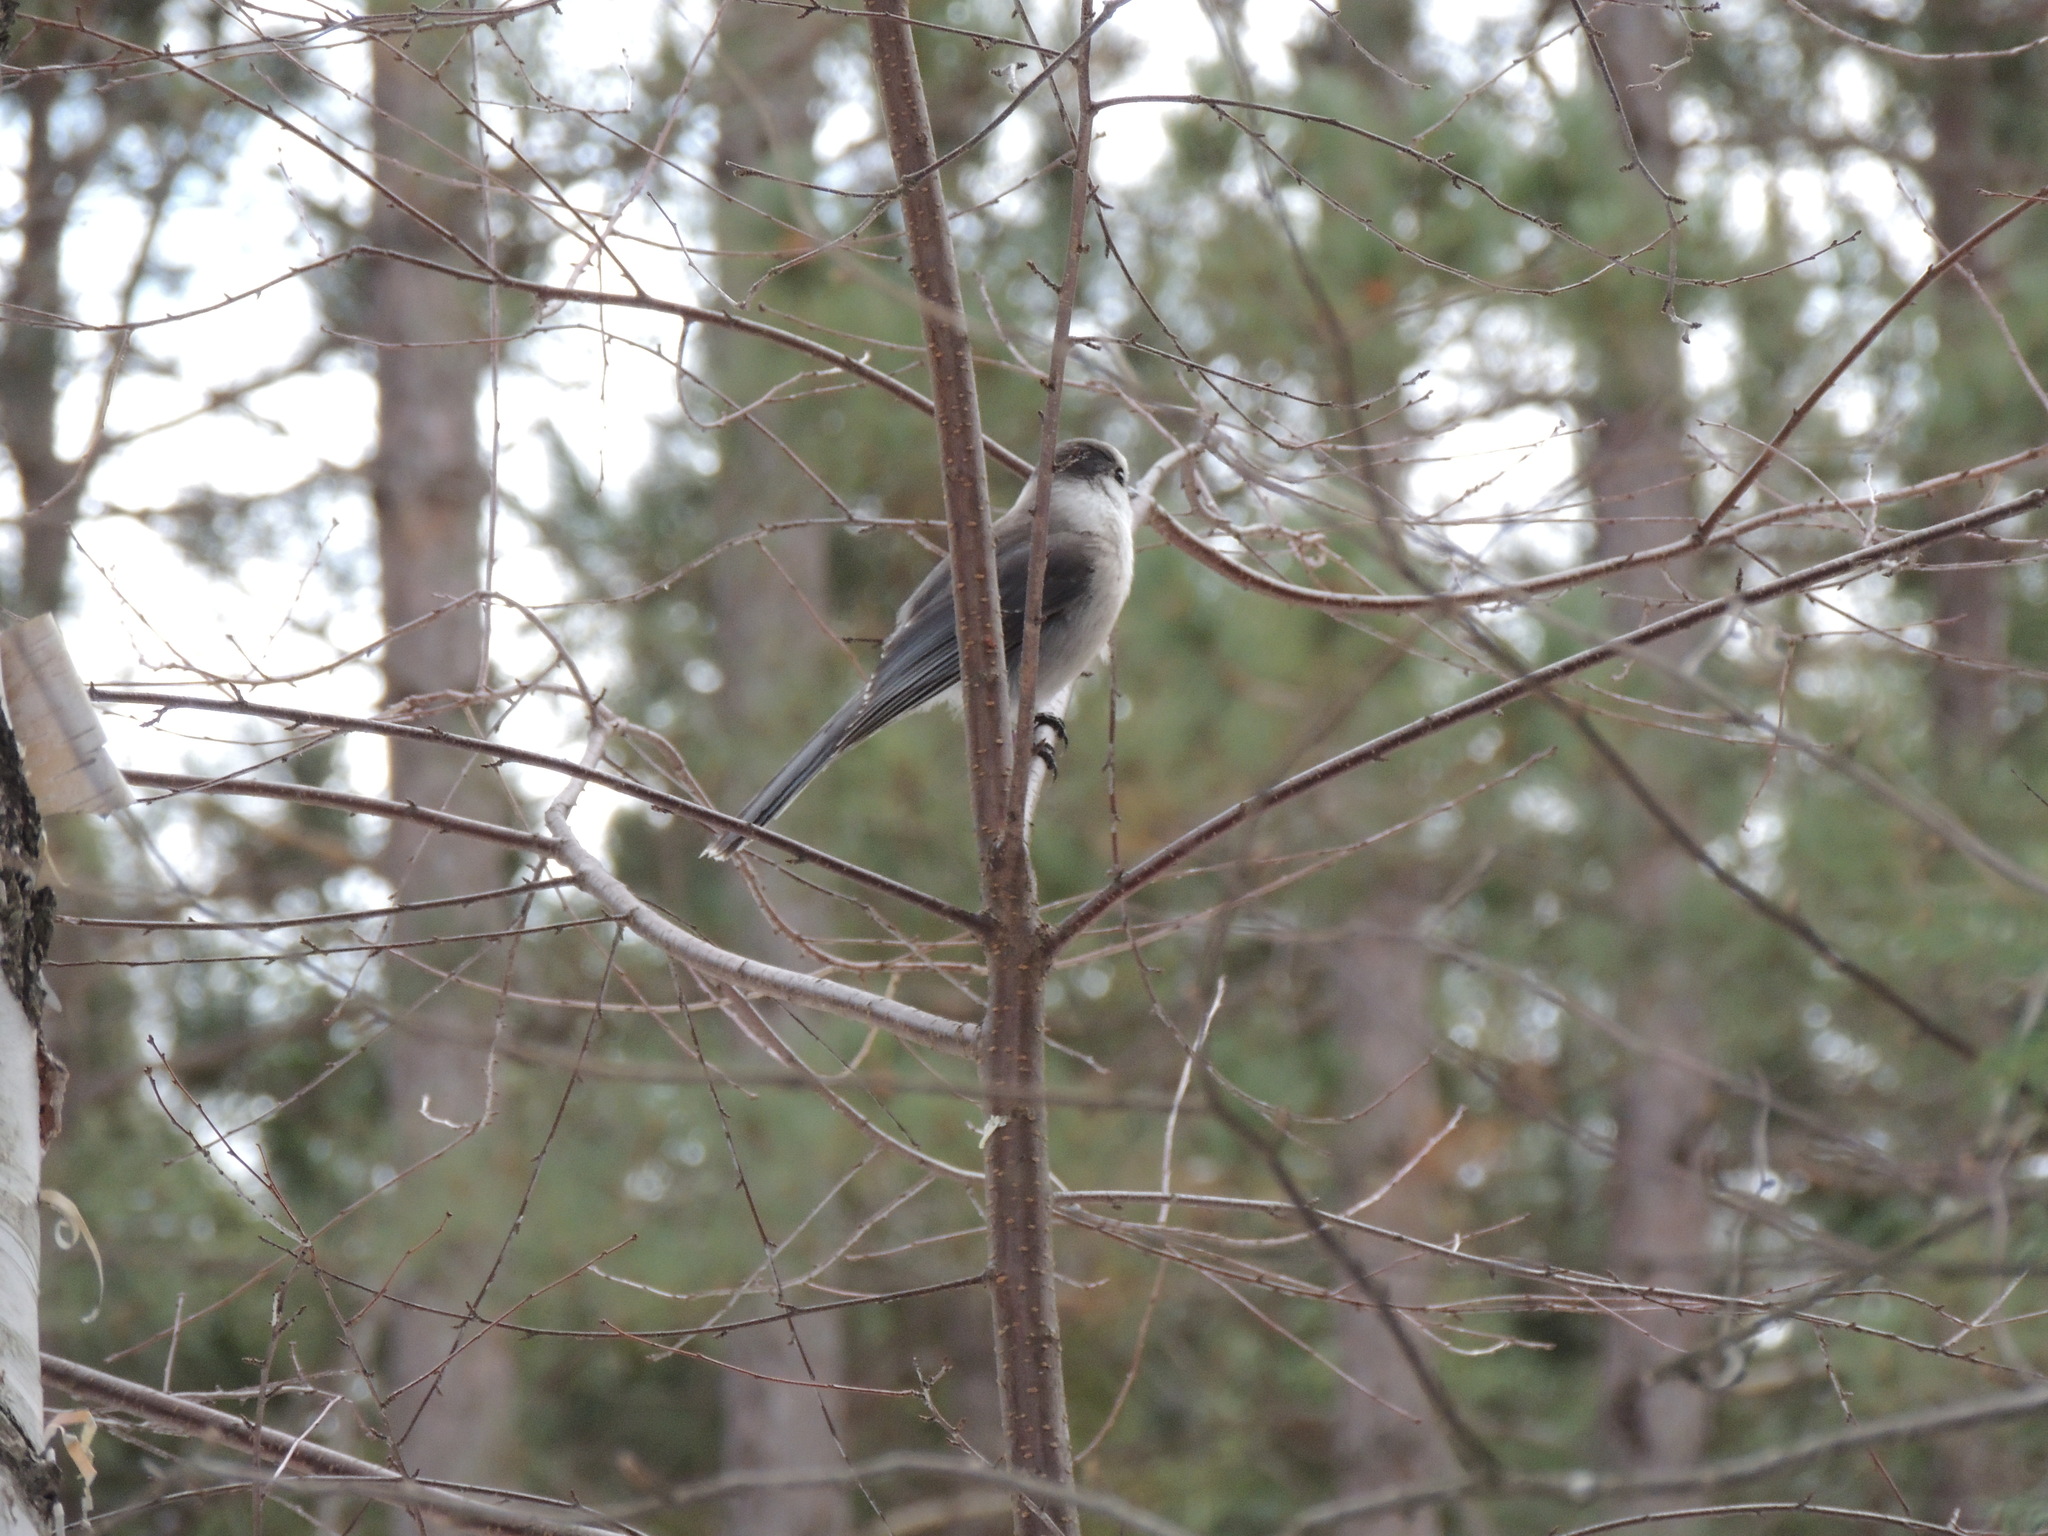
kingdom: Animalia
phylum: Chordata
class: Aves
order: Passeriformes
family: Corvidae
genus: Perisoreus
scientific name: Perisoreus canadensis
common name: Gray jay
